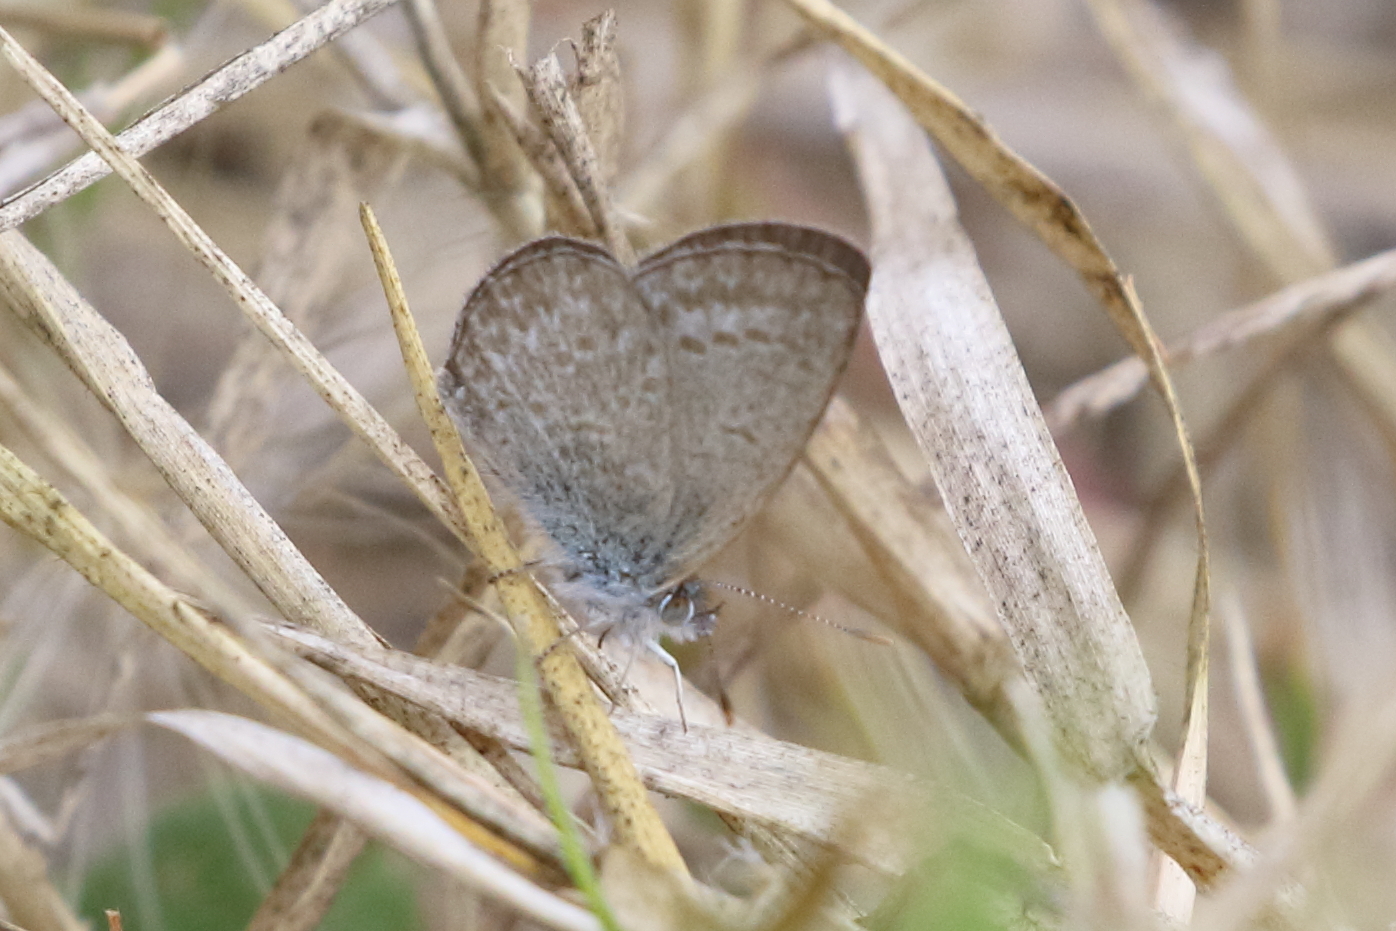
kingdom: Animalia
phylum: Arthropoda
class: Insecta
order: Lepidoptera
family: Lycaenidae
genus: Zizina
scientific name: Zizina labradus
